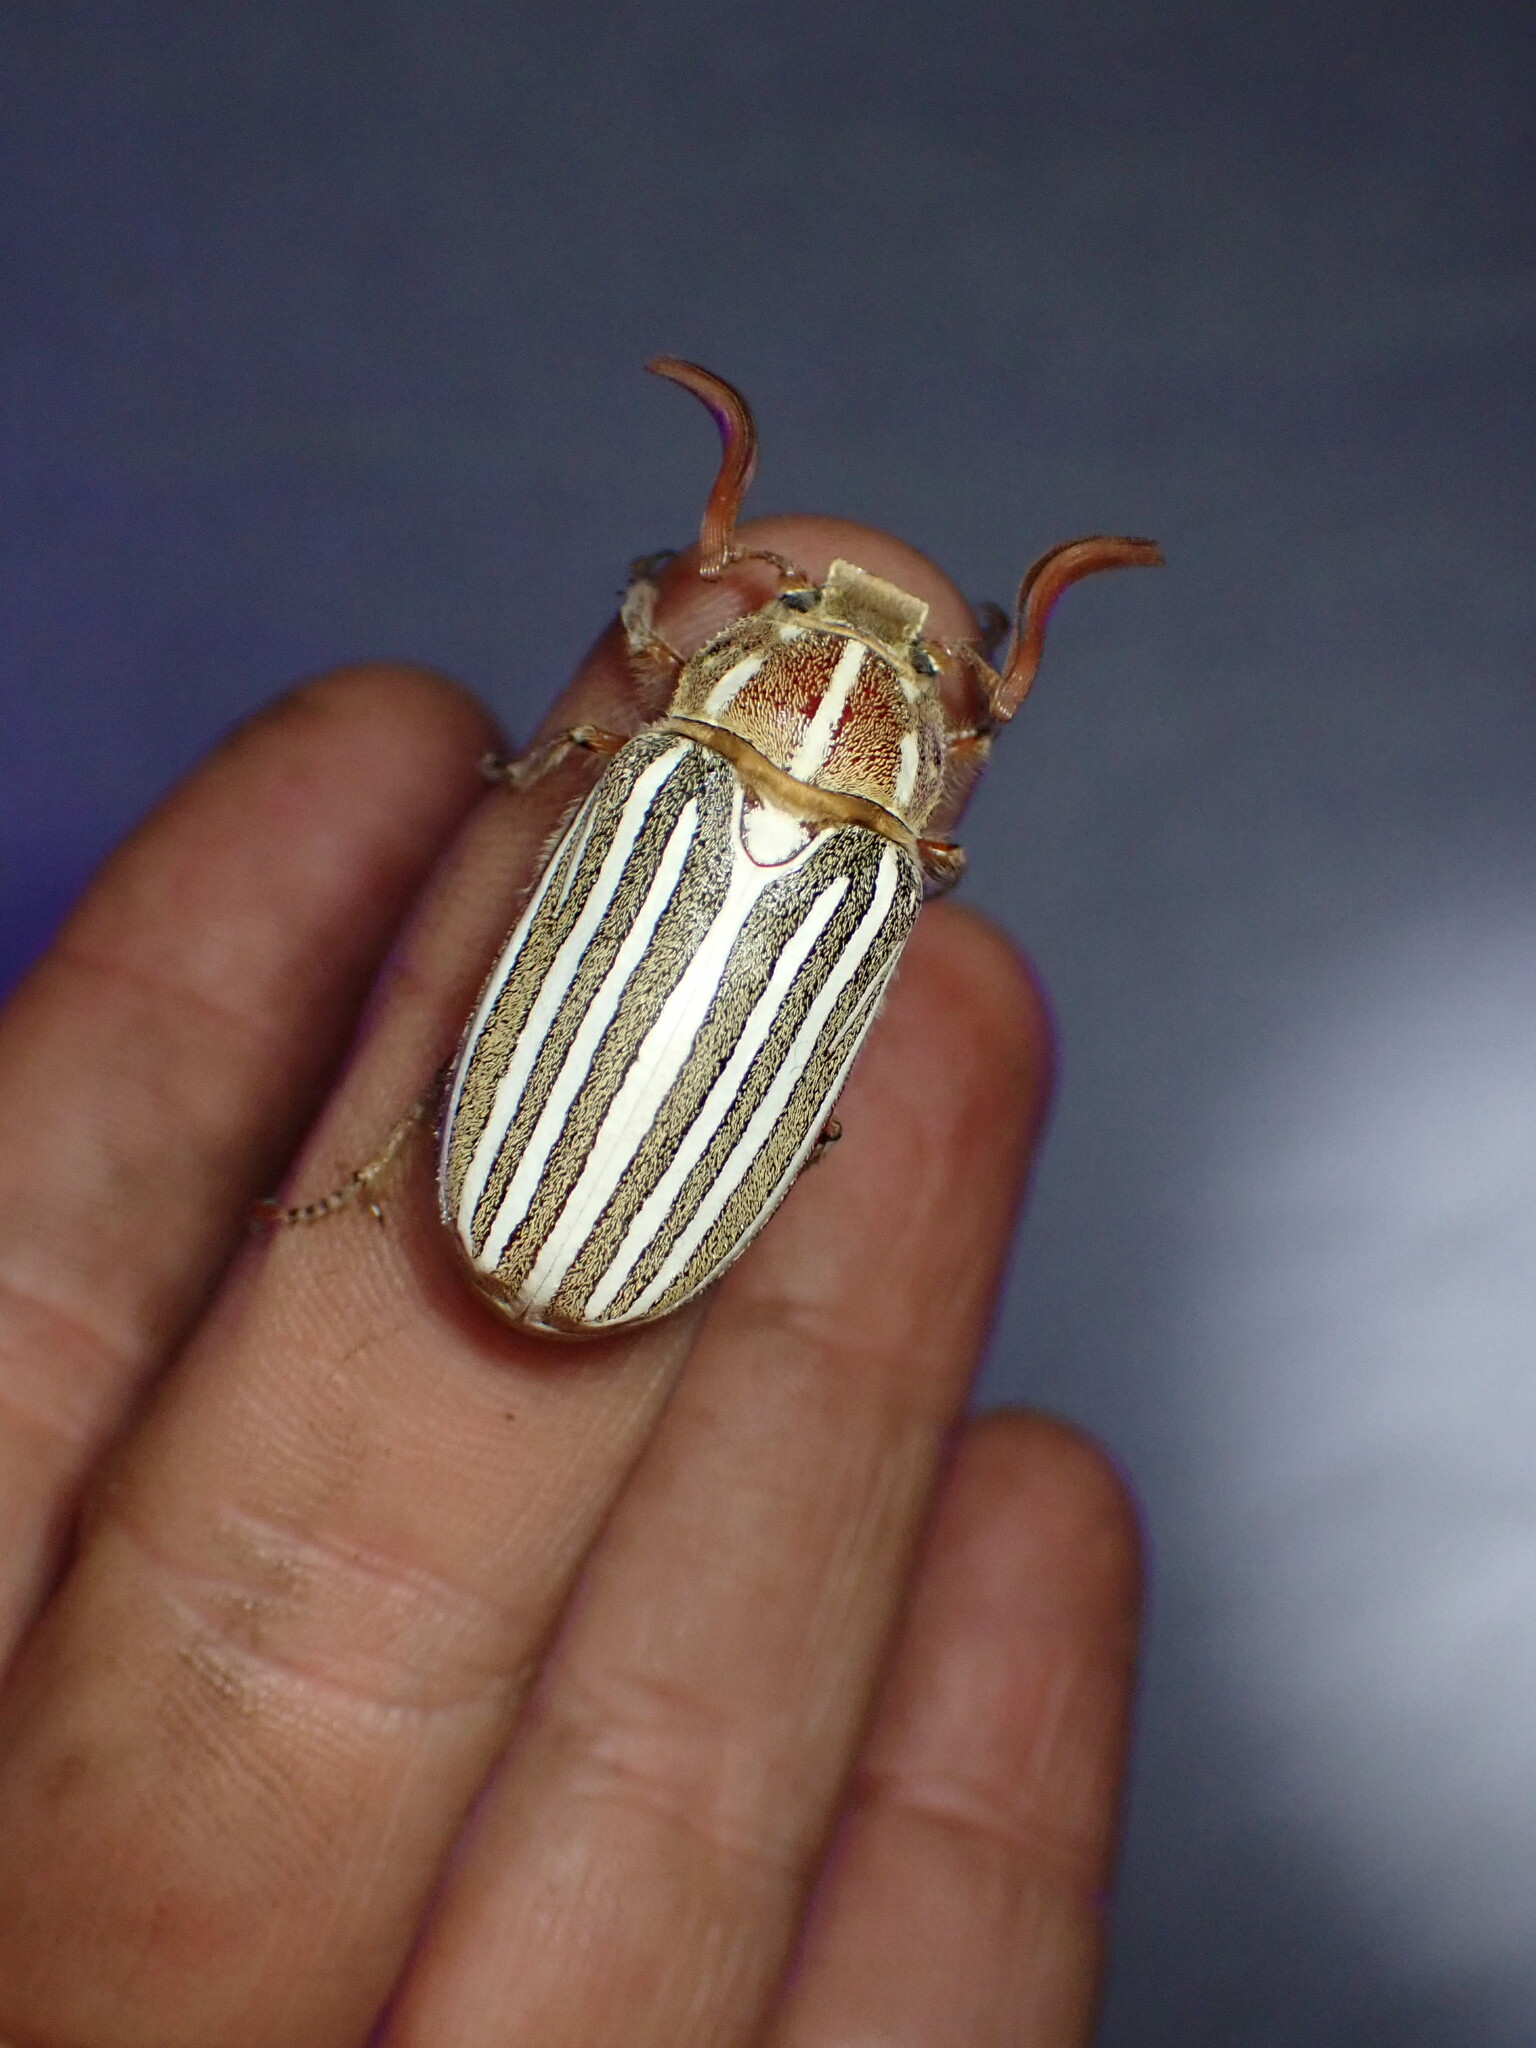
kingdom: Animalia
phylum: Arthropoda
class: Insecta
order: Coleoptera
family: Scarabaeidae
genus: Polyphylla
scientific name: Polyphylla decemlineata
